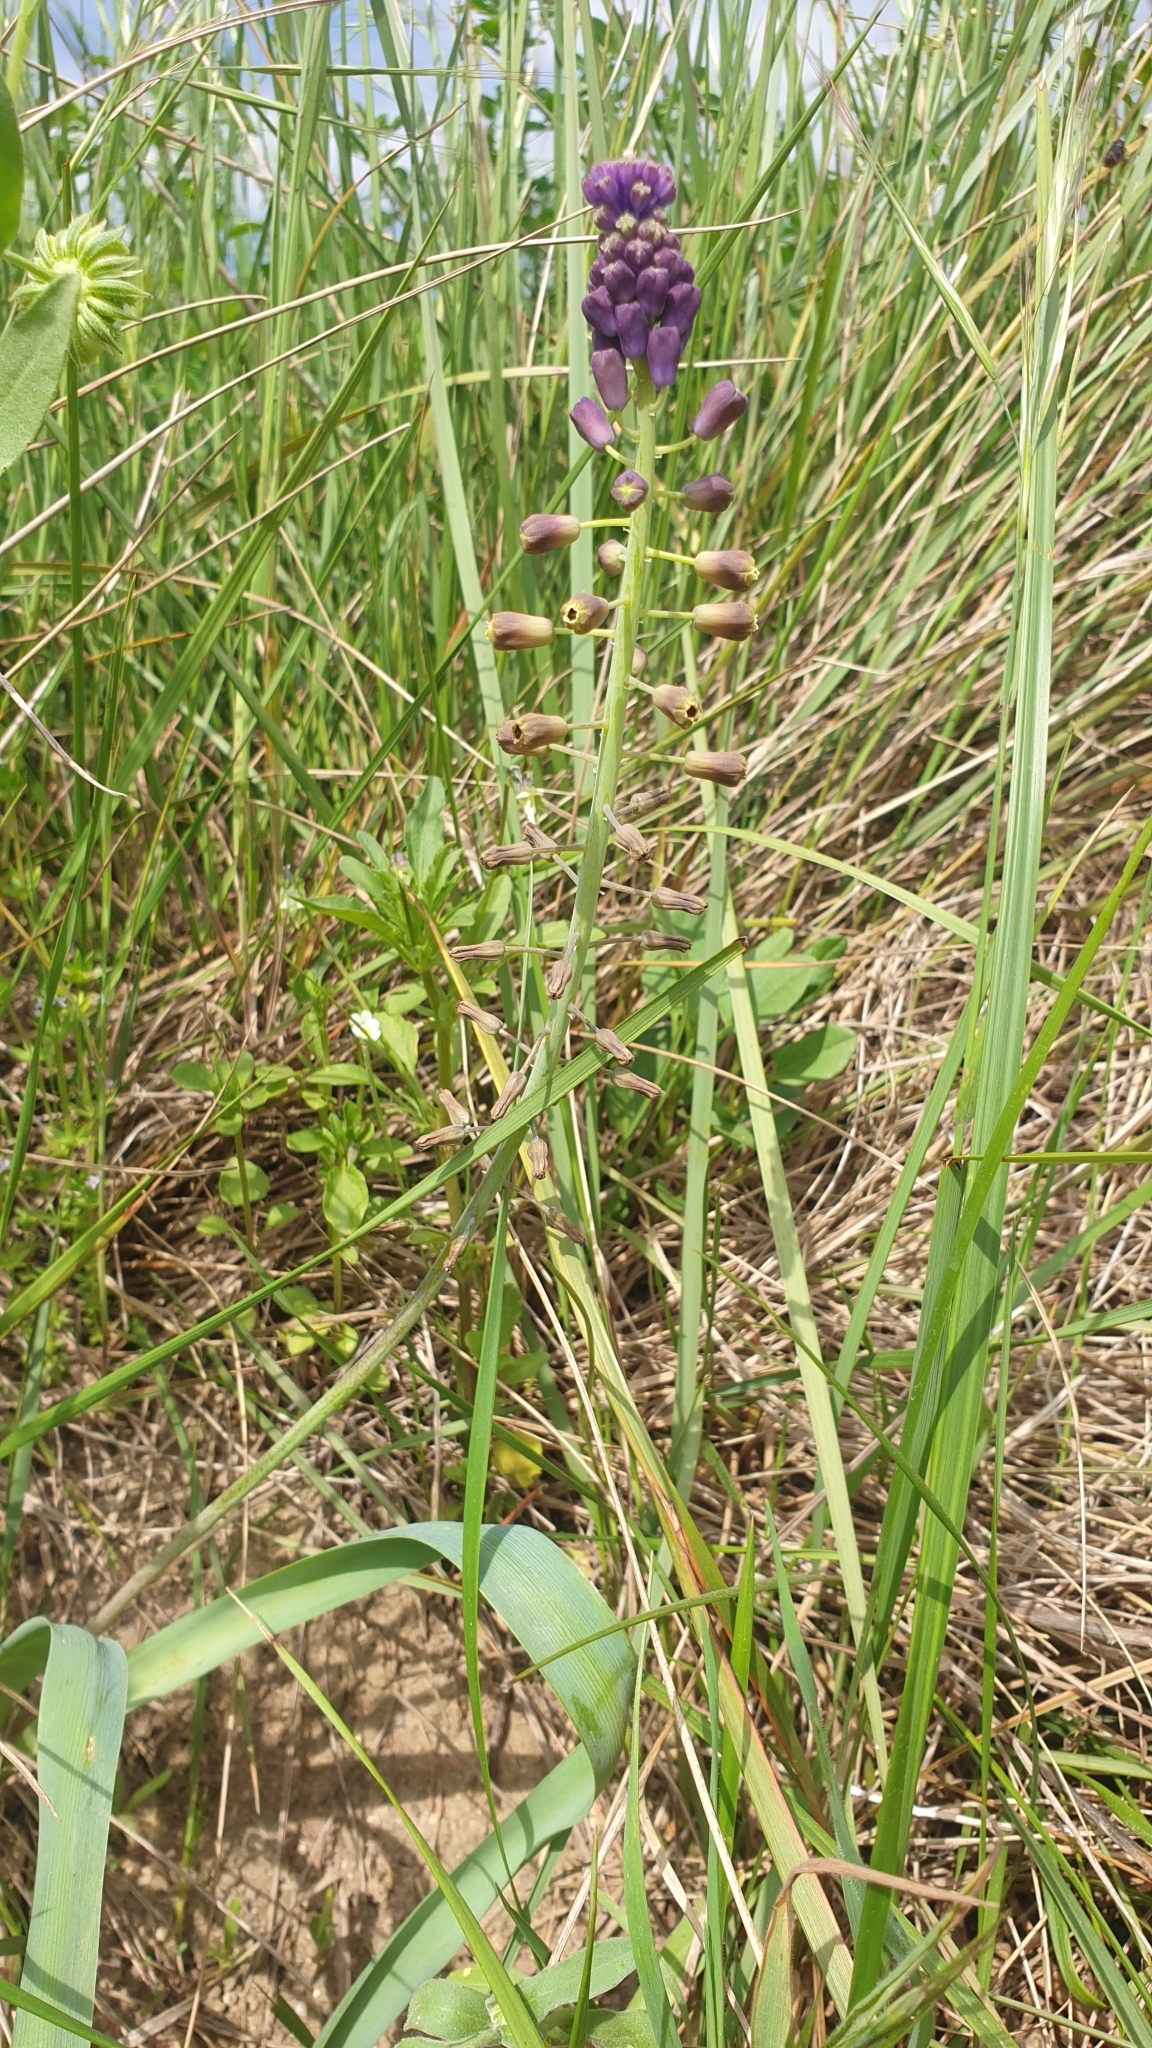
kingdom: Plantae
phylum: Tracheophyta
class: Liliopsida
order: Asparagales
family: Asparagaceae
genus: Muscari
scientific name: Muscari comosum
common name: Tassel hyacinth
